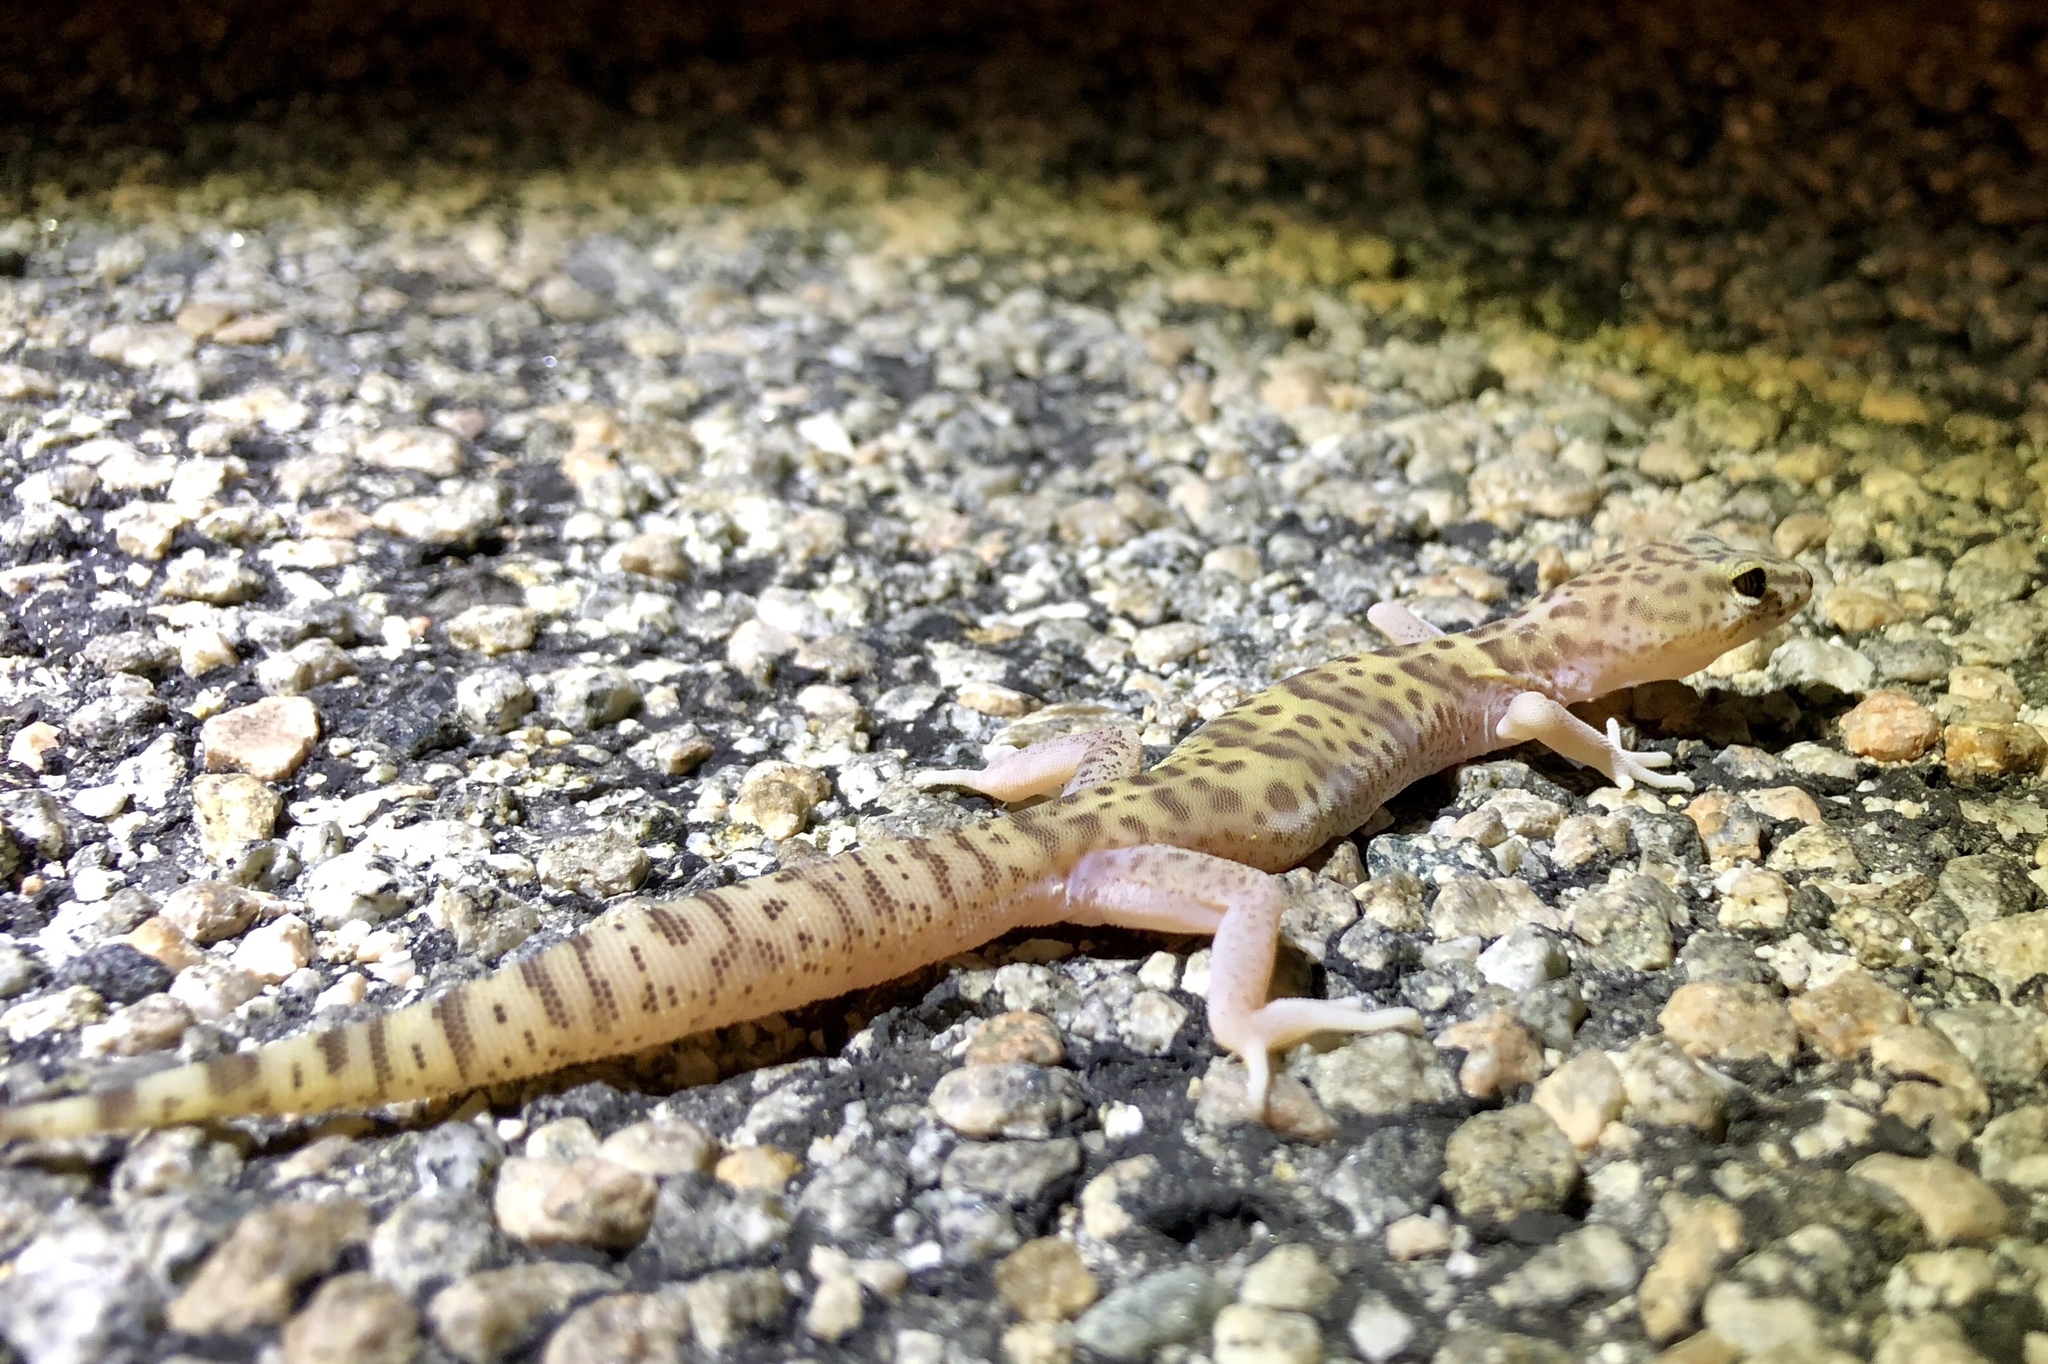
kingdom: Animalia
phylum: Chordata
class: Squamata
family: Eublepharidae
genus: Coleonyx
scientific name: Coleonyx variegatus
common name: Western banded gecko
